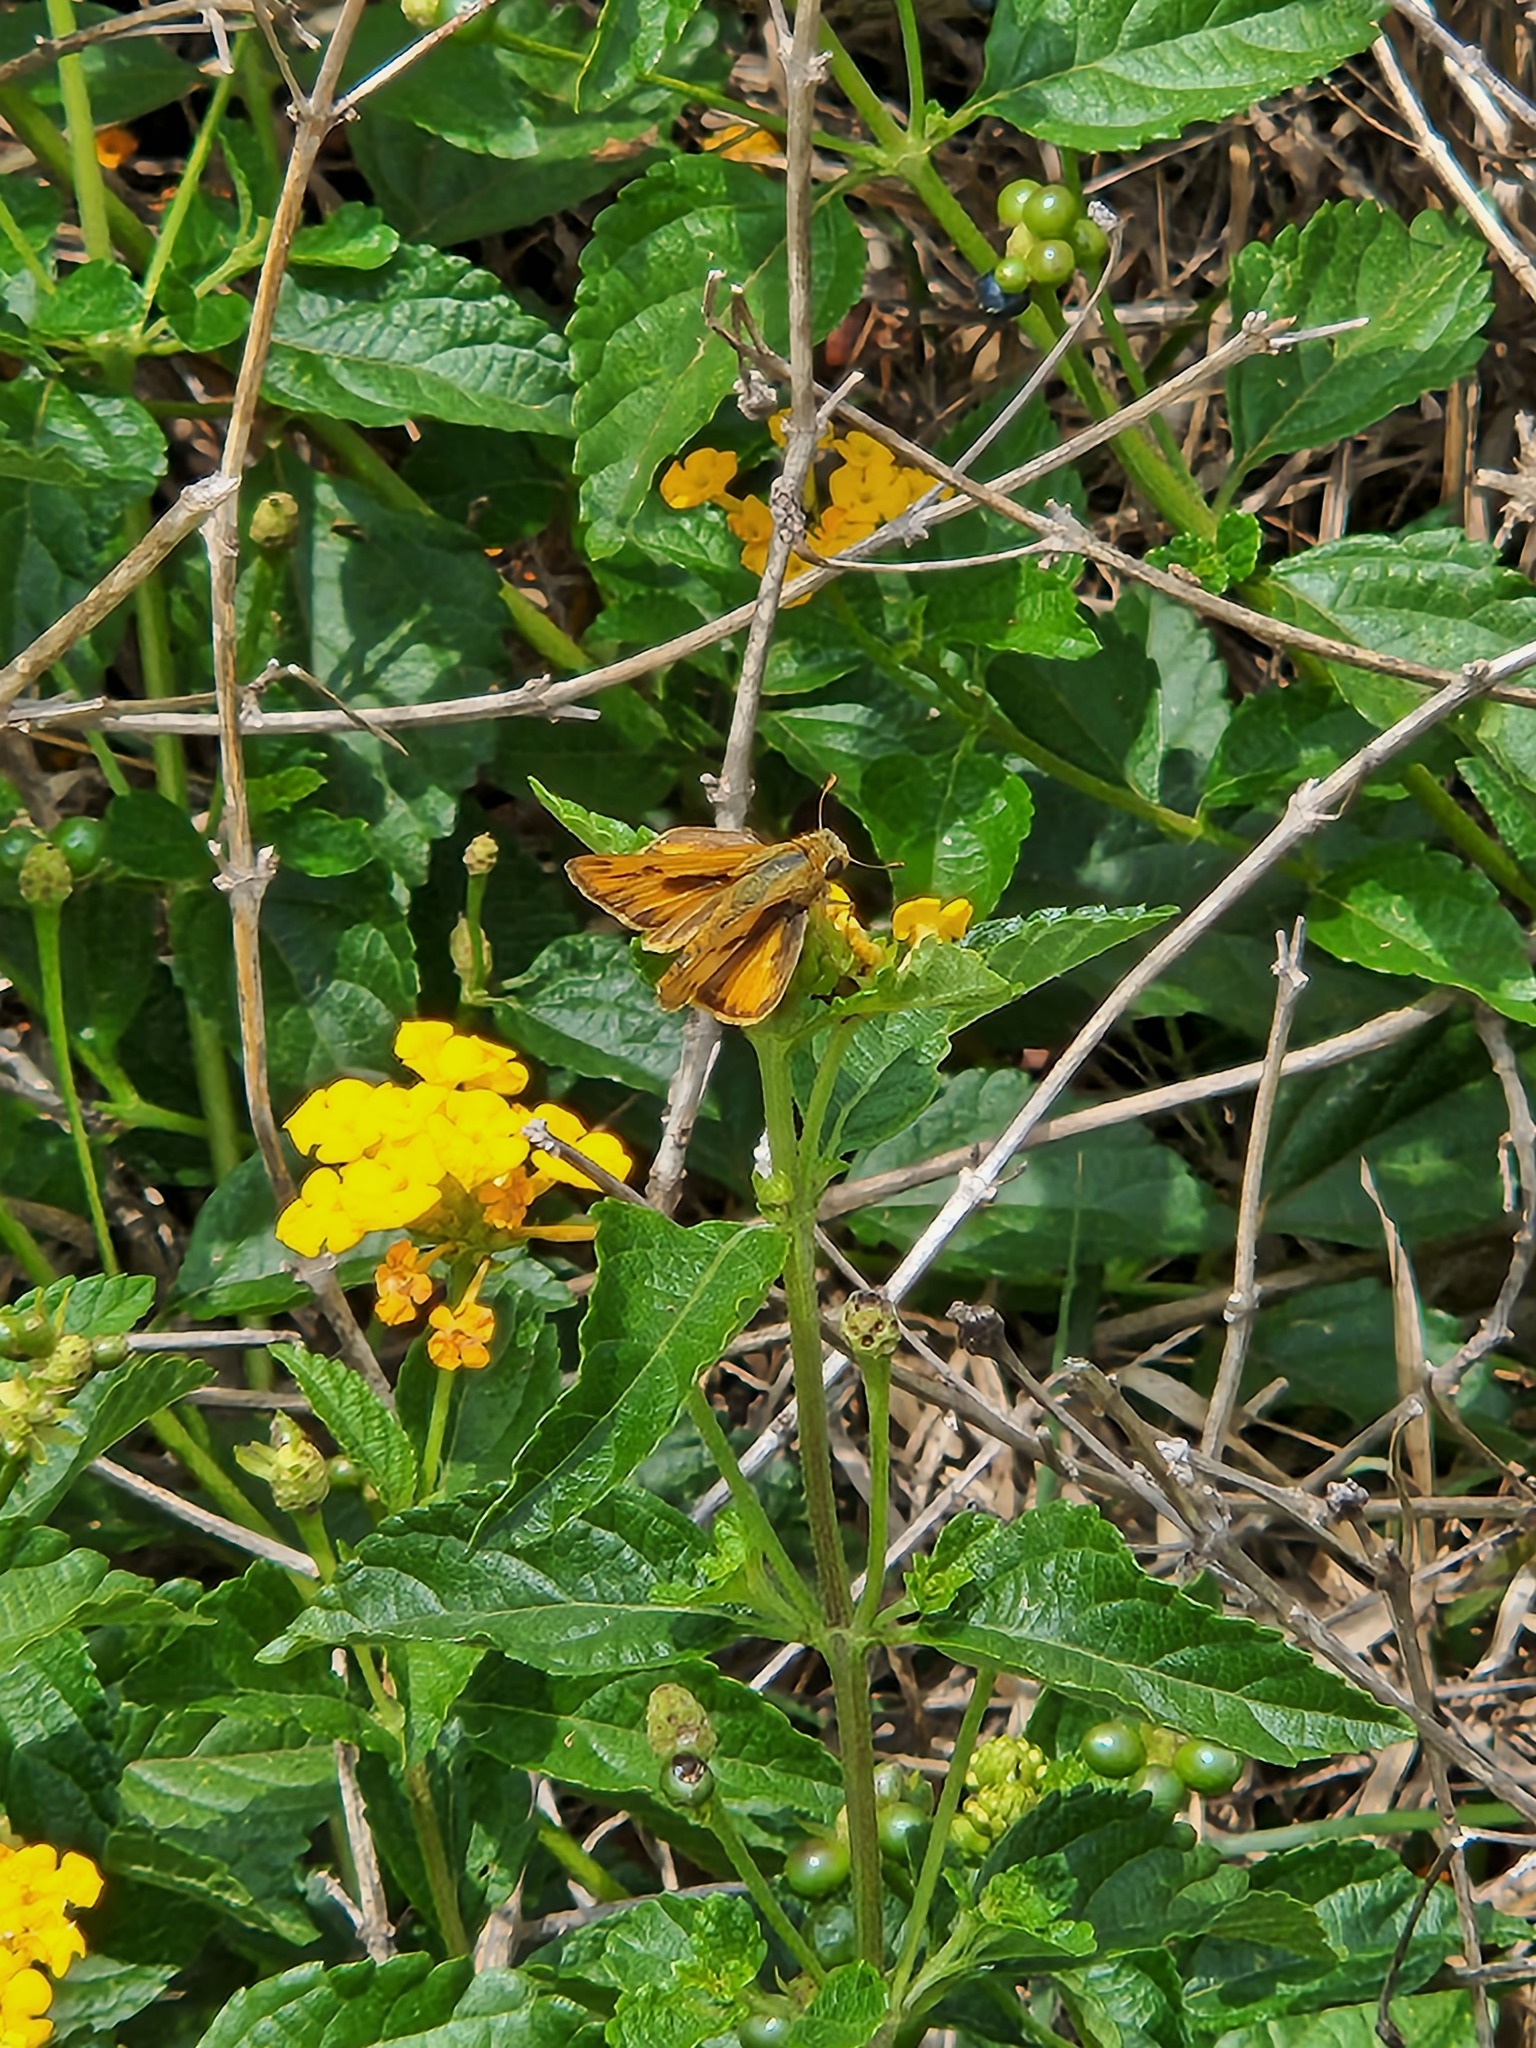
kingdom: Animalia
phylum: Arthropoda
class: Insecta
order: Lepidoptera
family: Hesperiidae
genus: Hylephila
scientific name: Hylephila phyleus
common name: Fiery skipper
